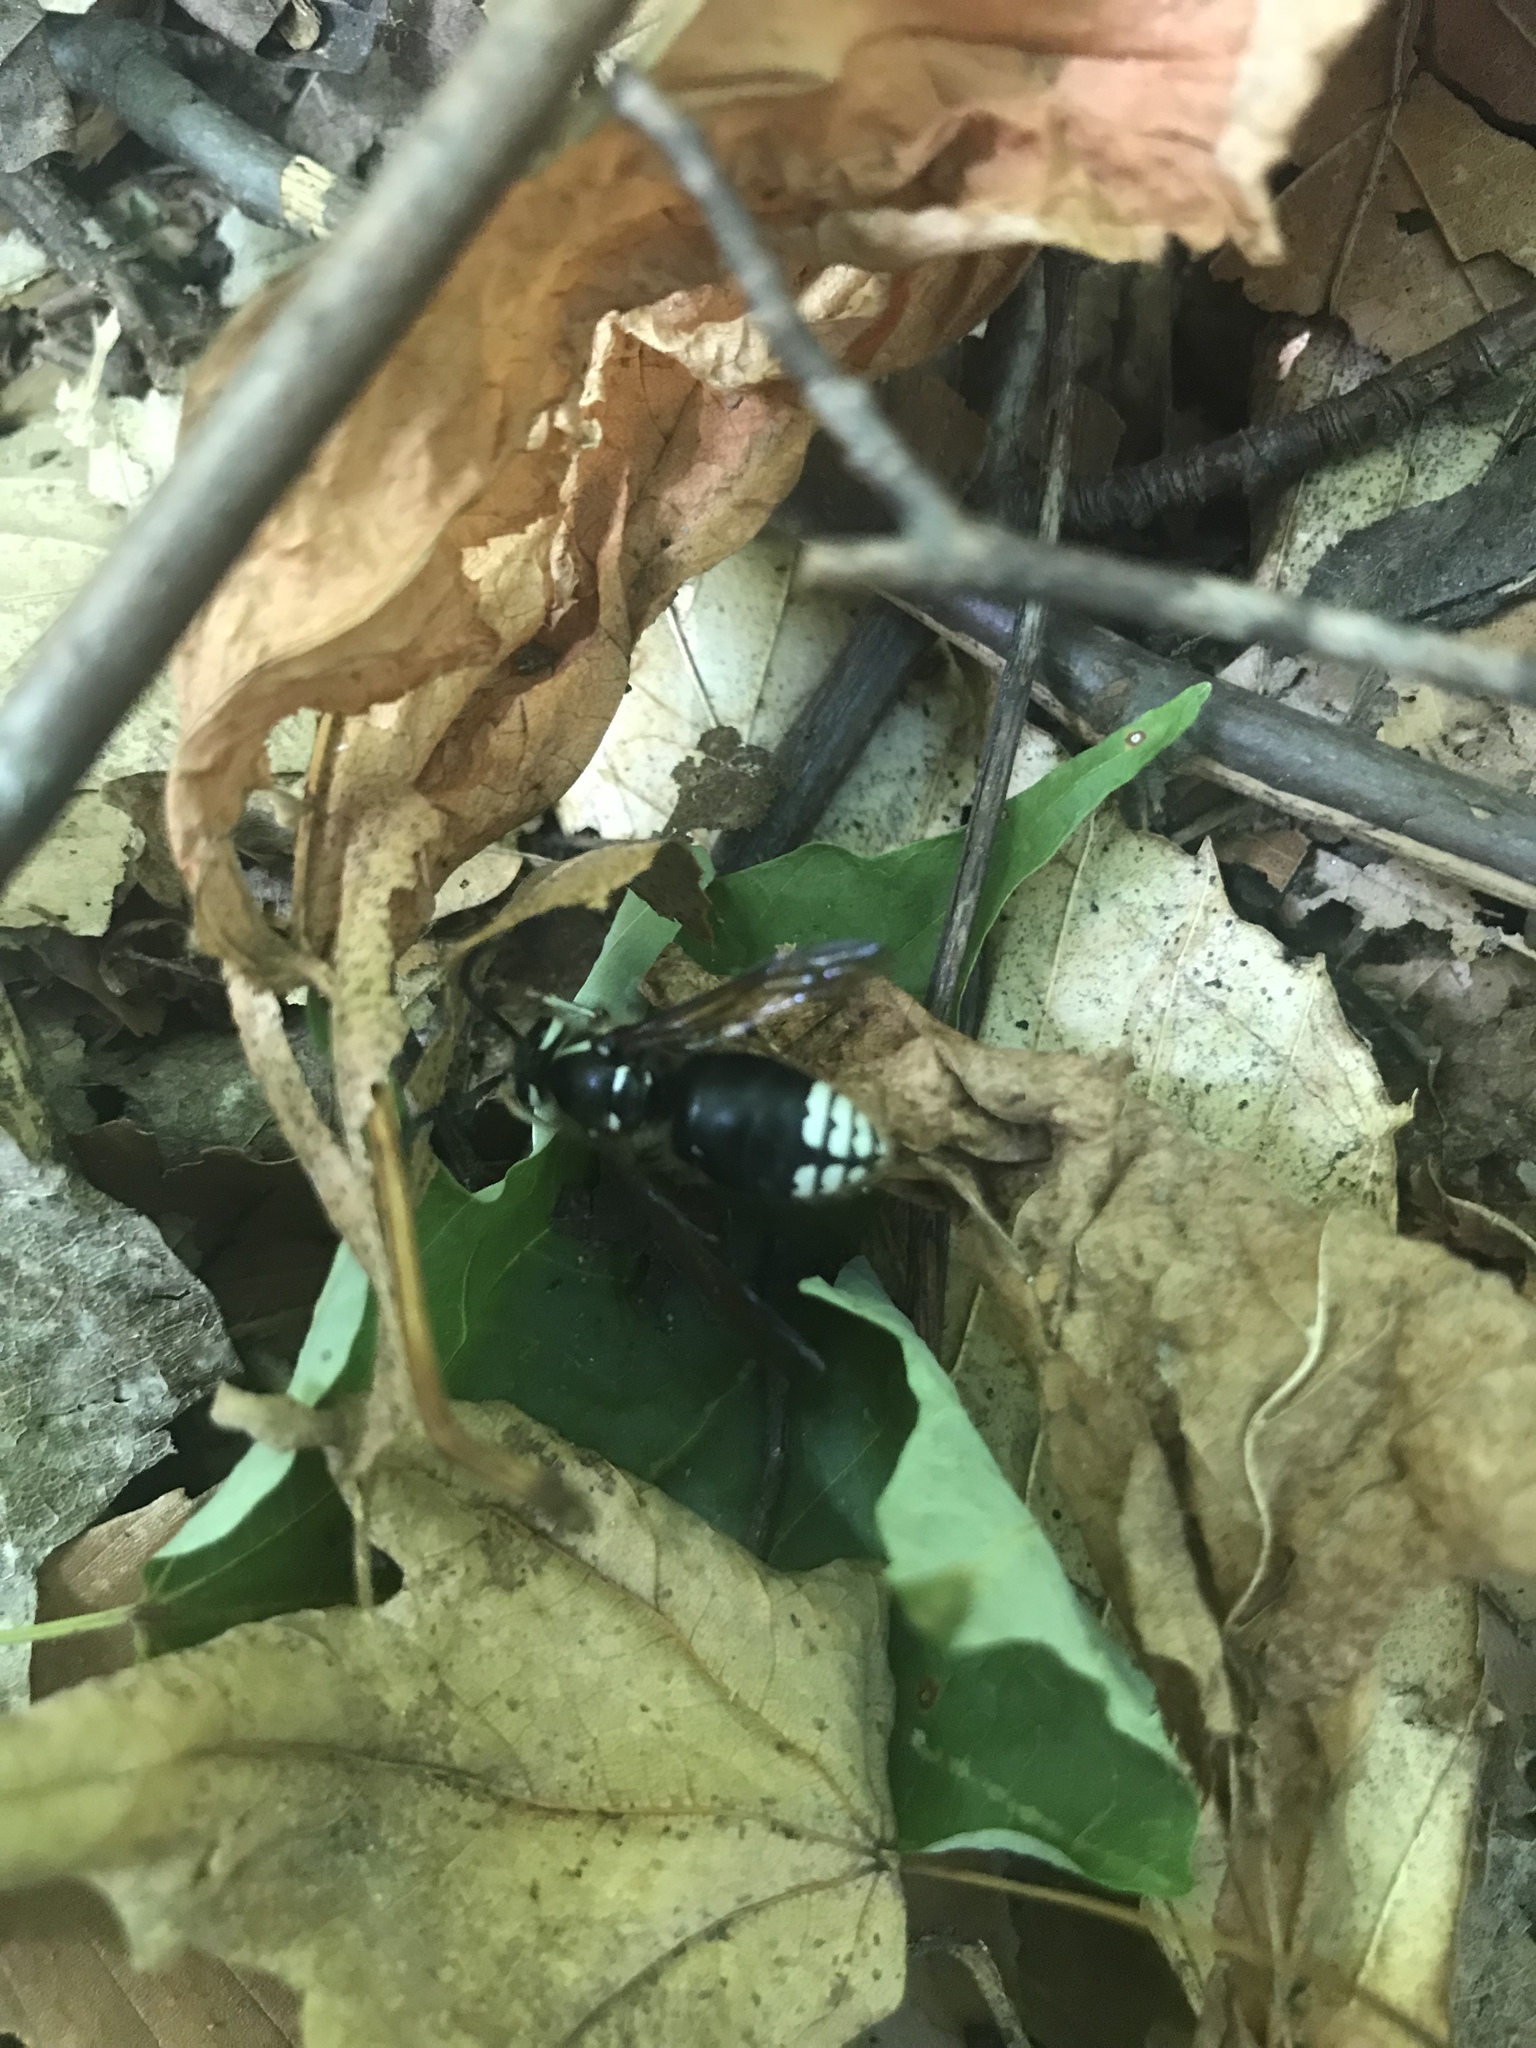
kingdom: Animalia
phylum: Arthropoda
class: Insecta
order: Hymenoptera
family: Vespidae
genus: Dolichovespula
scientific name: Dolichovespula maculata
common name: Bald-faced hornet
